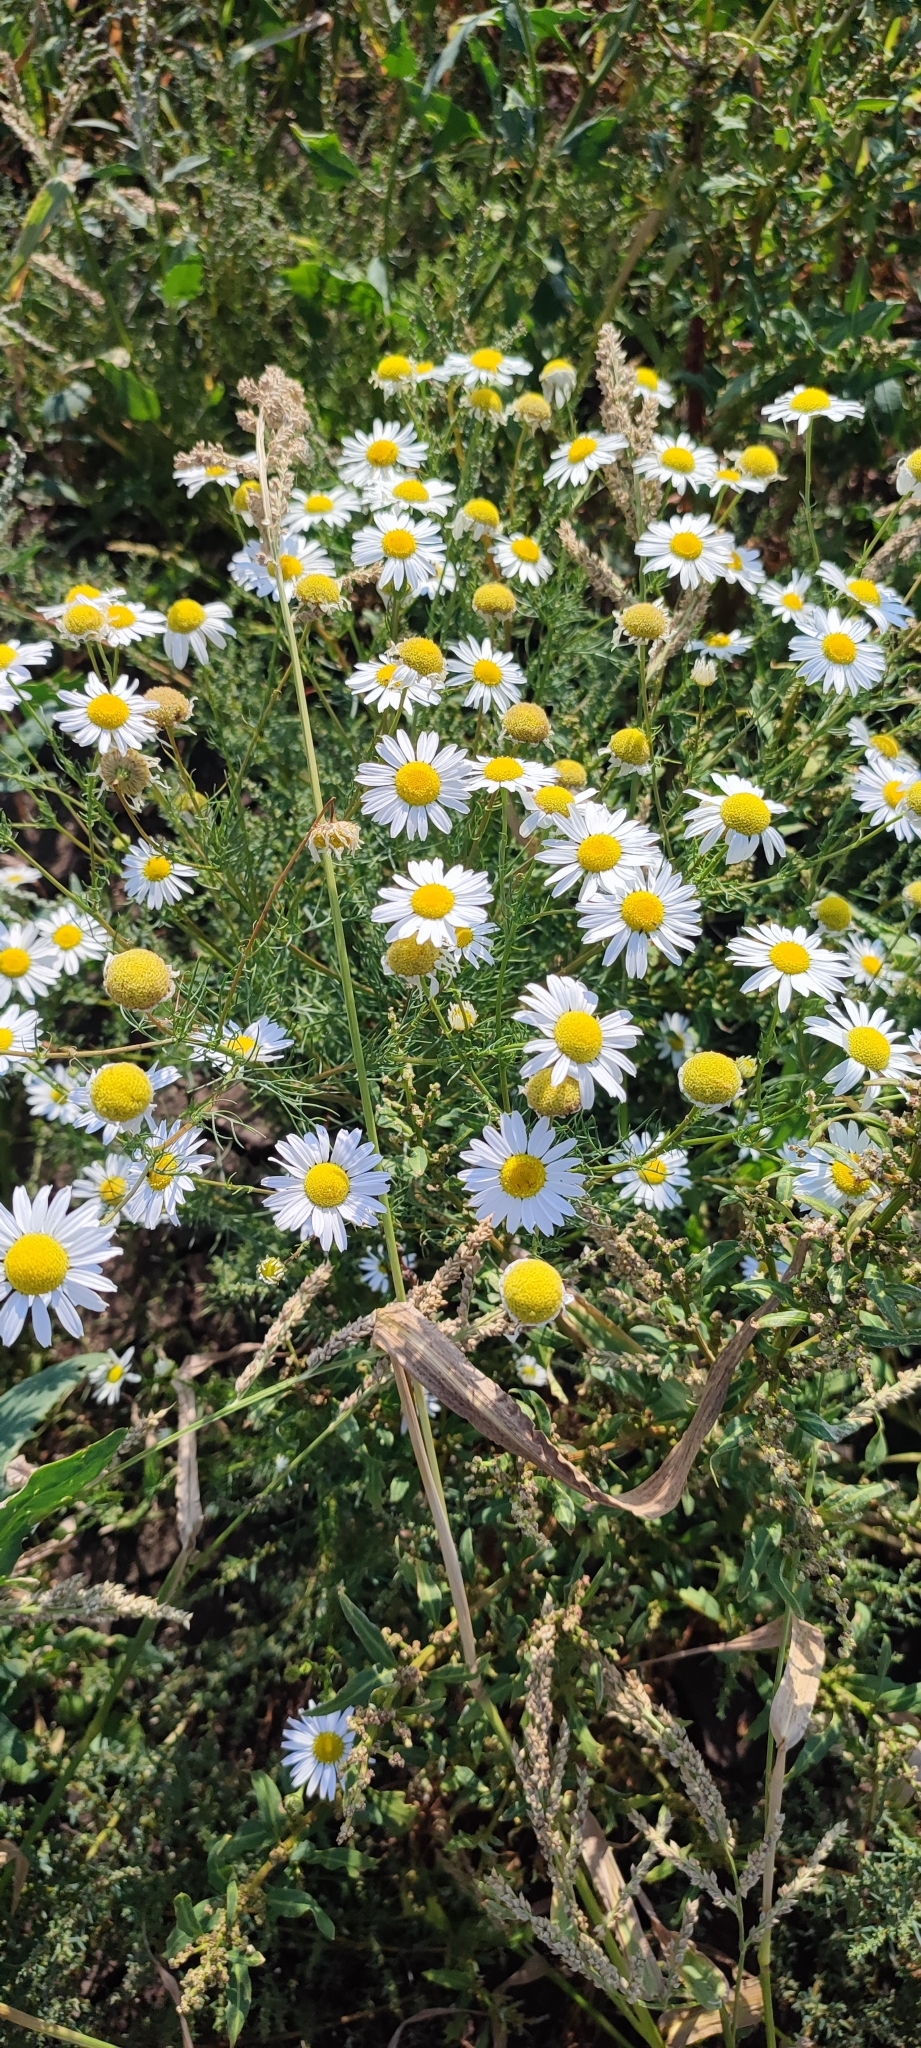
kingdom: Plantae
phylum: Tracheophyta
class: Magnoliopsida
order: Asterales
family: Asteraceae
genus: Tripleurospermum
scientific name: Tripleurospermum inodorum
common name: Scentless mayweed
